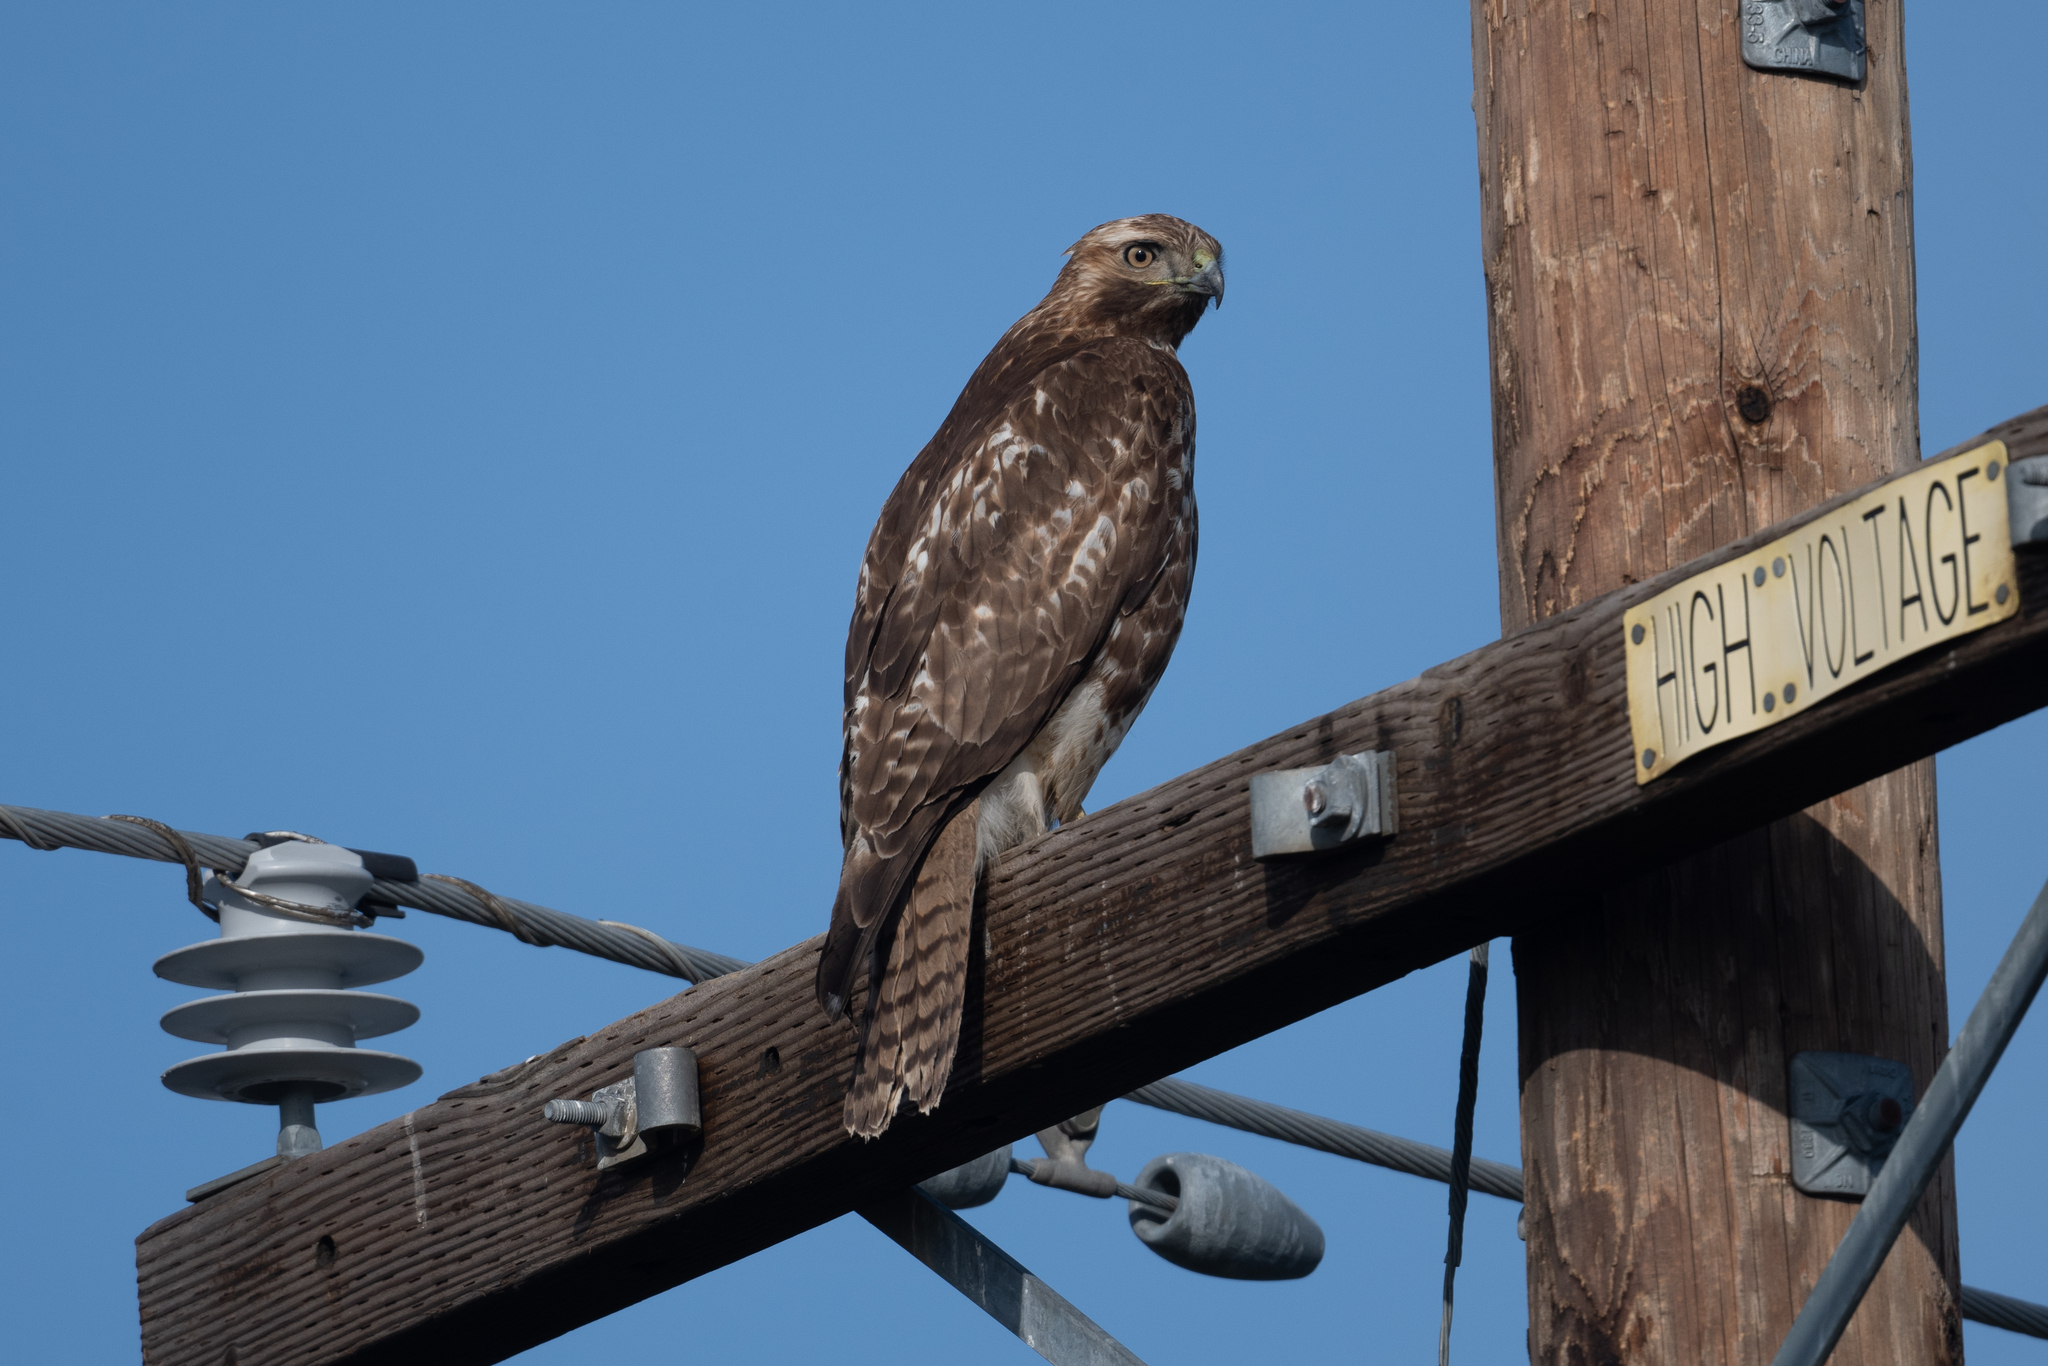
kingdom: Animalia
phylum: Chordata
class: Aves
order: Accipitriformes
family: Accipitridae
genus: Buteo
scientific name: Buteo jamaicensis
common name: Red-tailed hawk
